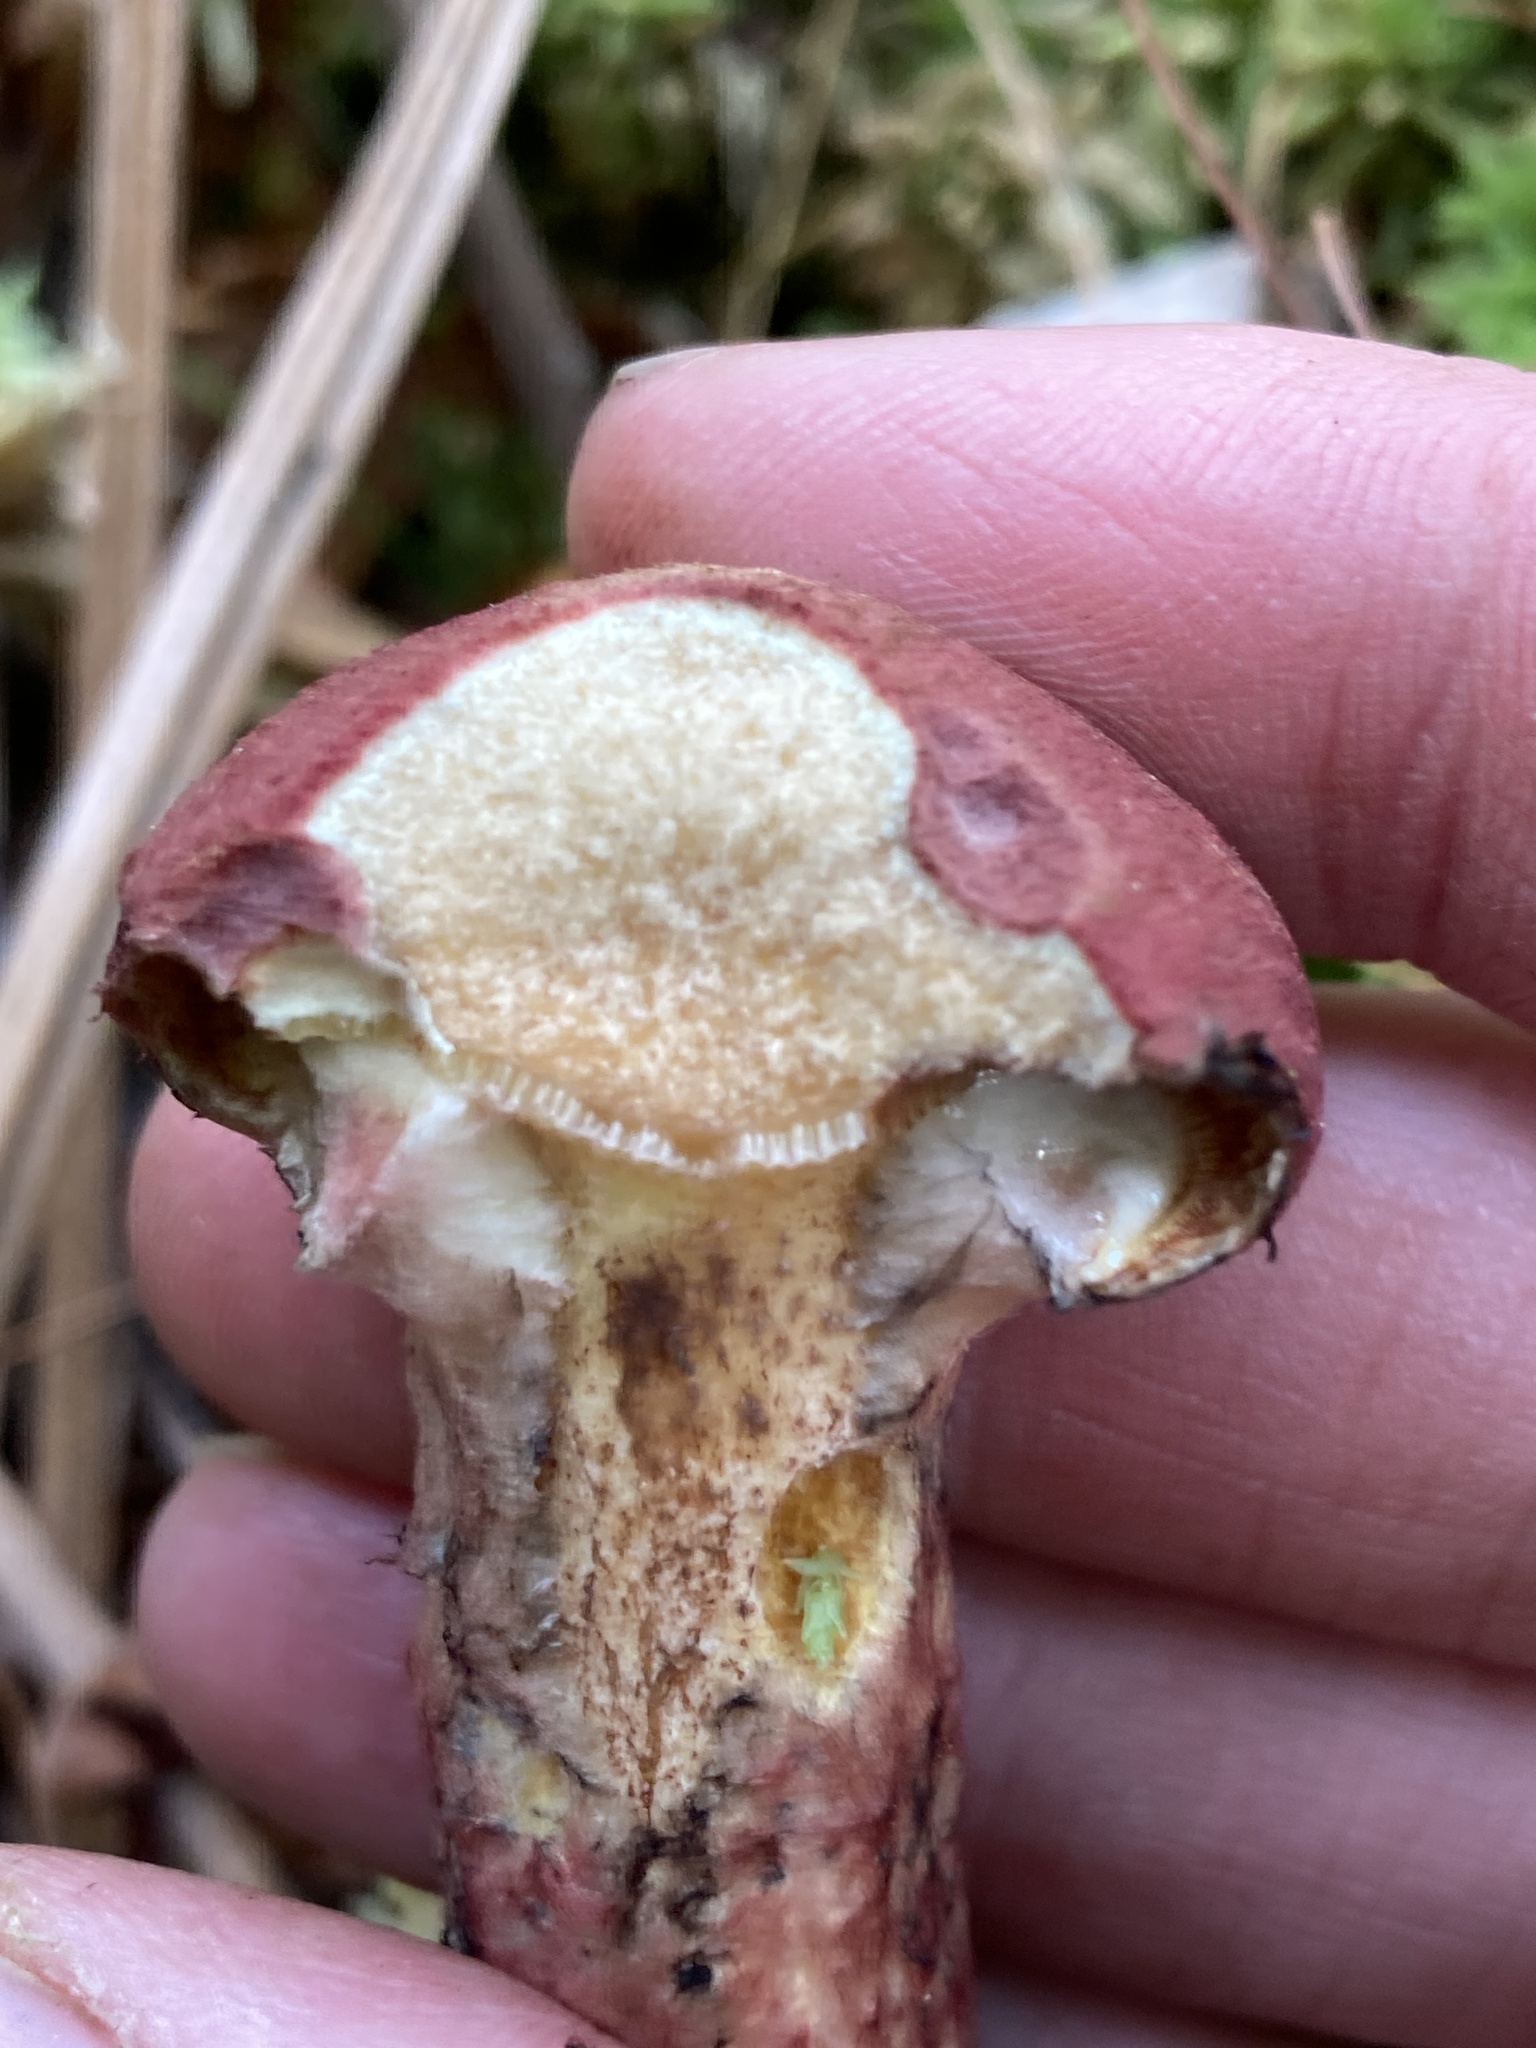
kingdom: Fungi
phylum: Basidiomycota
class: Agaricomycetes
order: Boletales
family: Suillaceae
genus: Suillus
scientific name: Suillus spraguei
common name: Painted suillus
